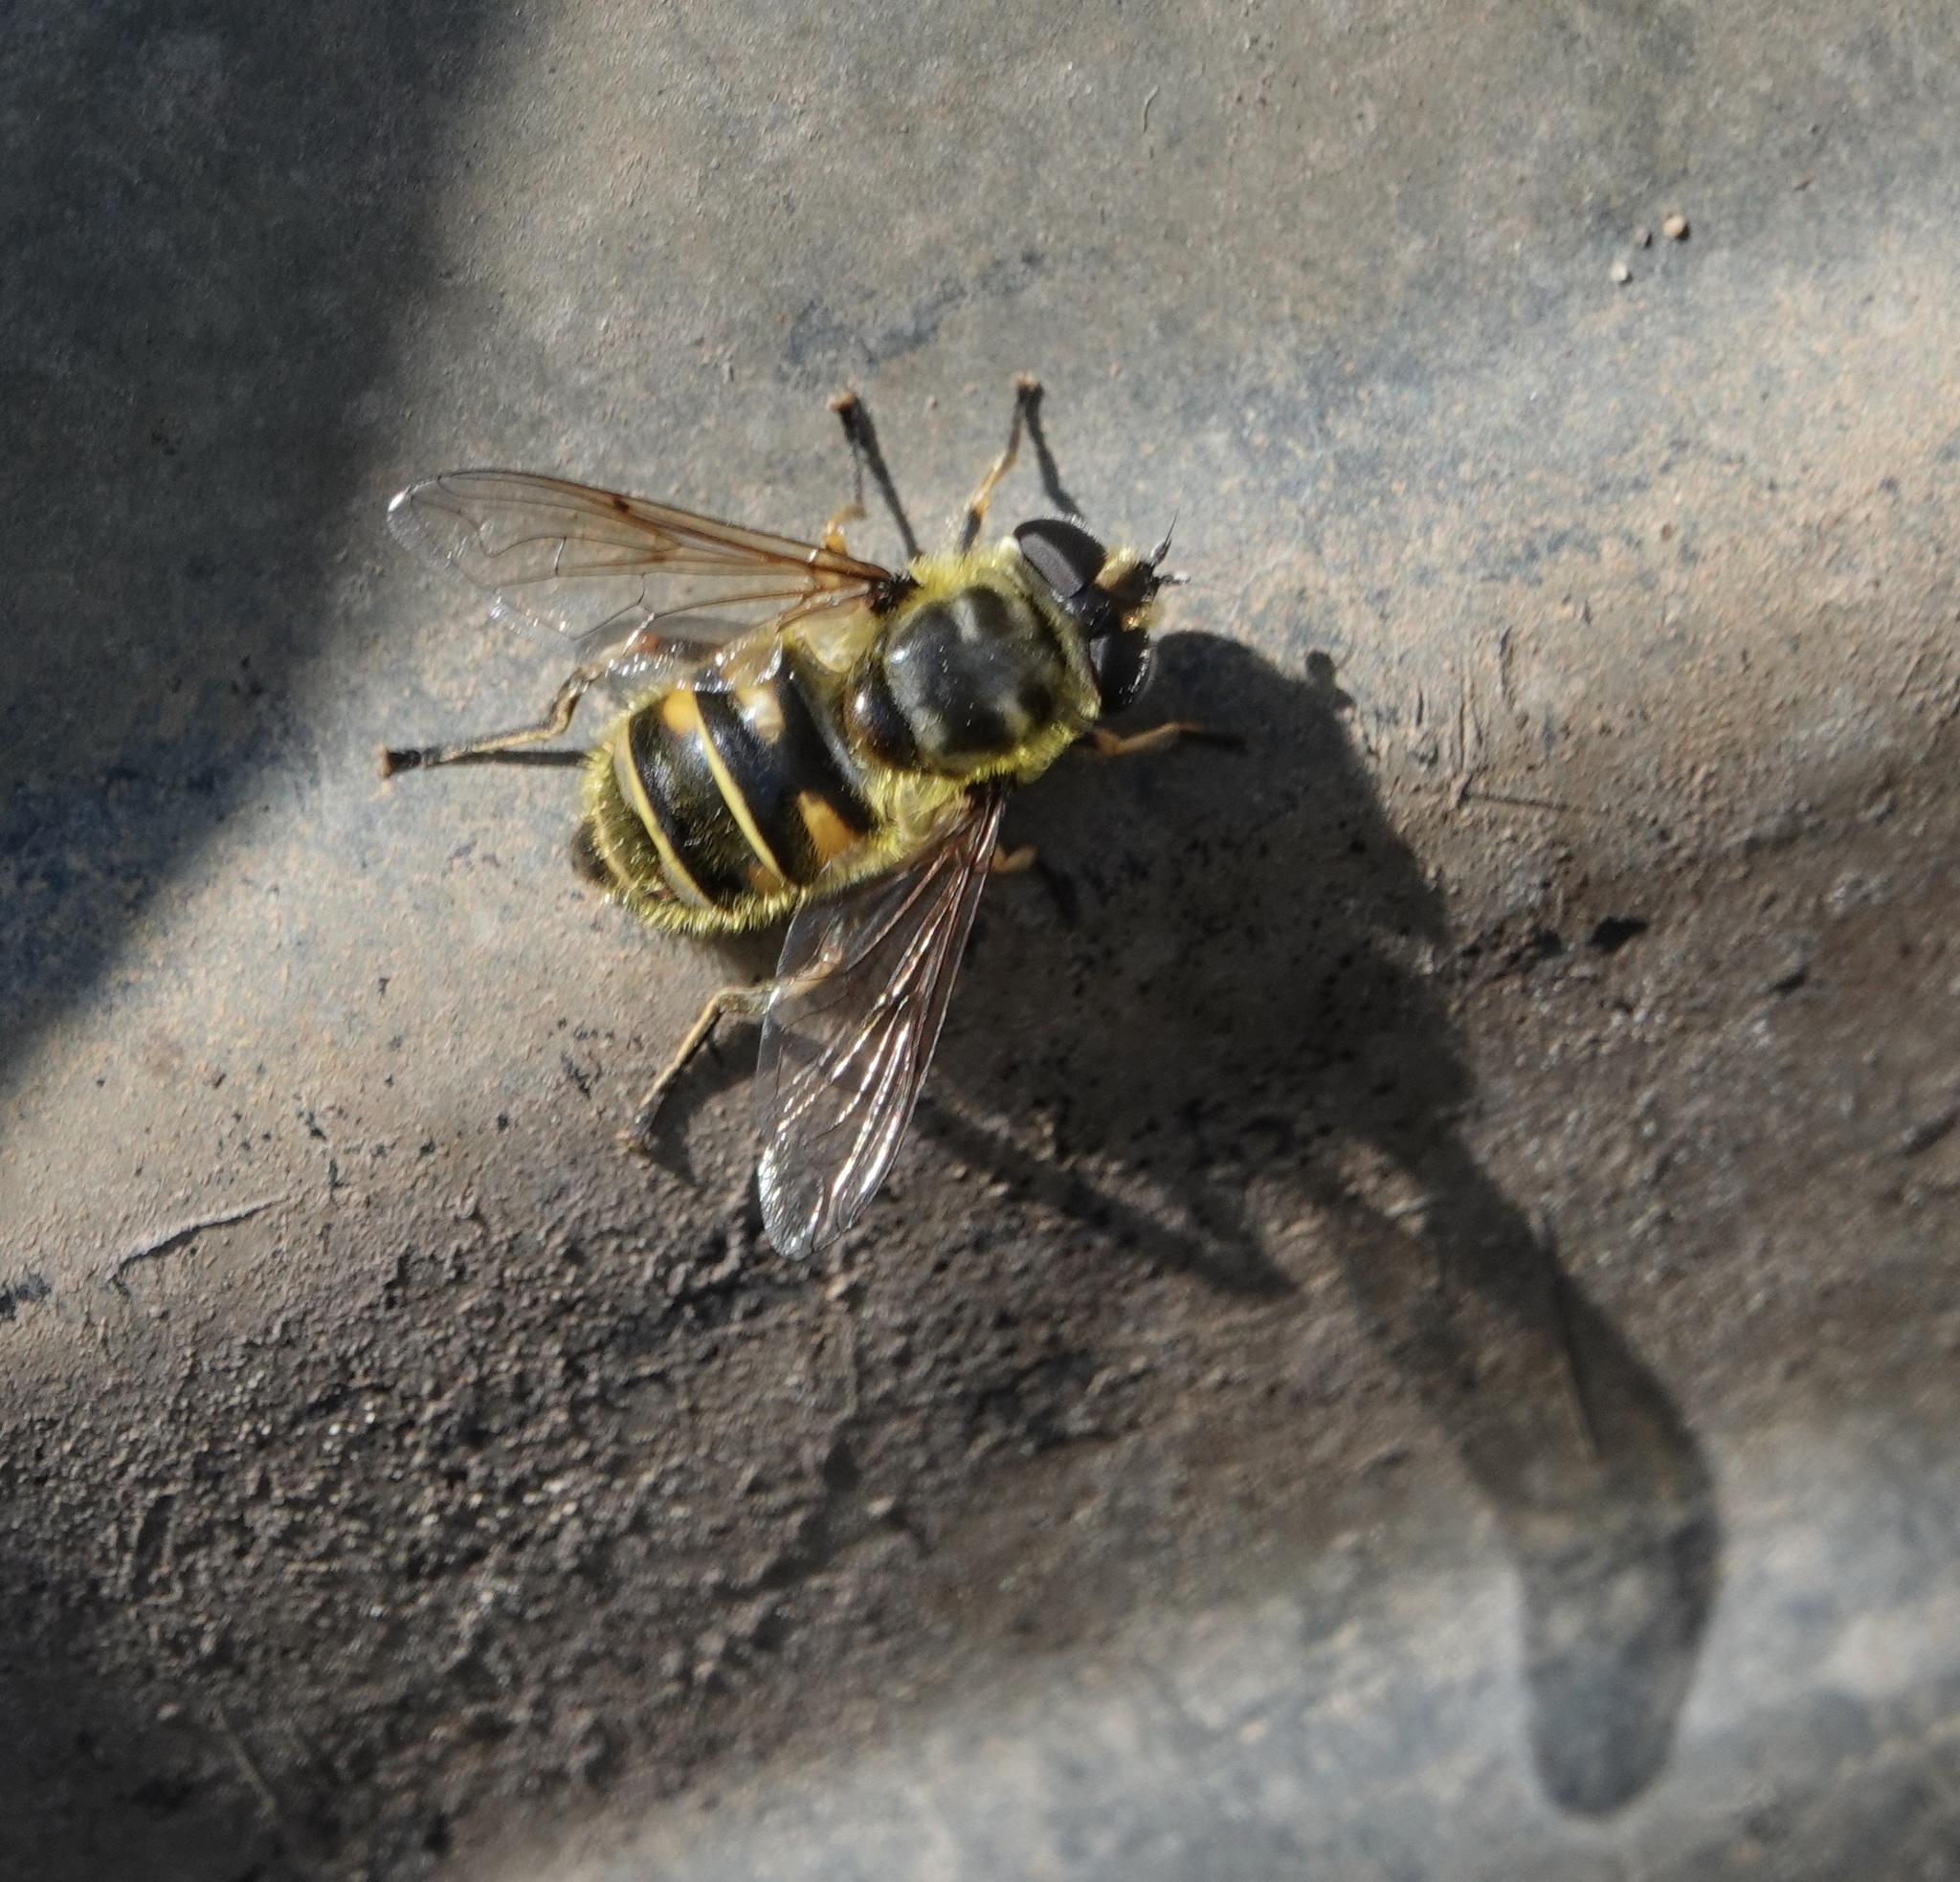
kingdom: Animalia
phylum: Arthropoda
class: Insecta
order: Diptera
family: Syrphidae
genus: Myathropa
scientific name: Myathropa florea
